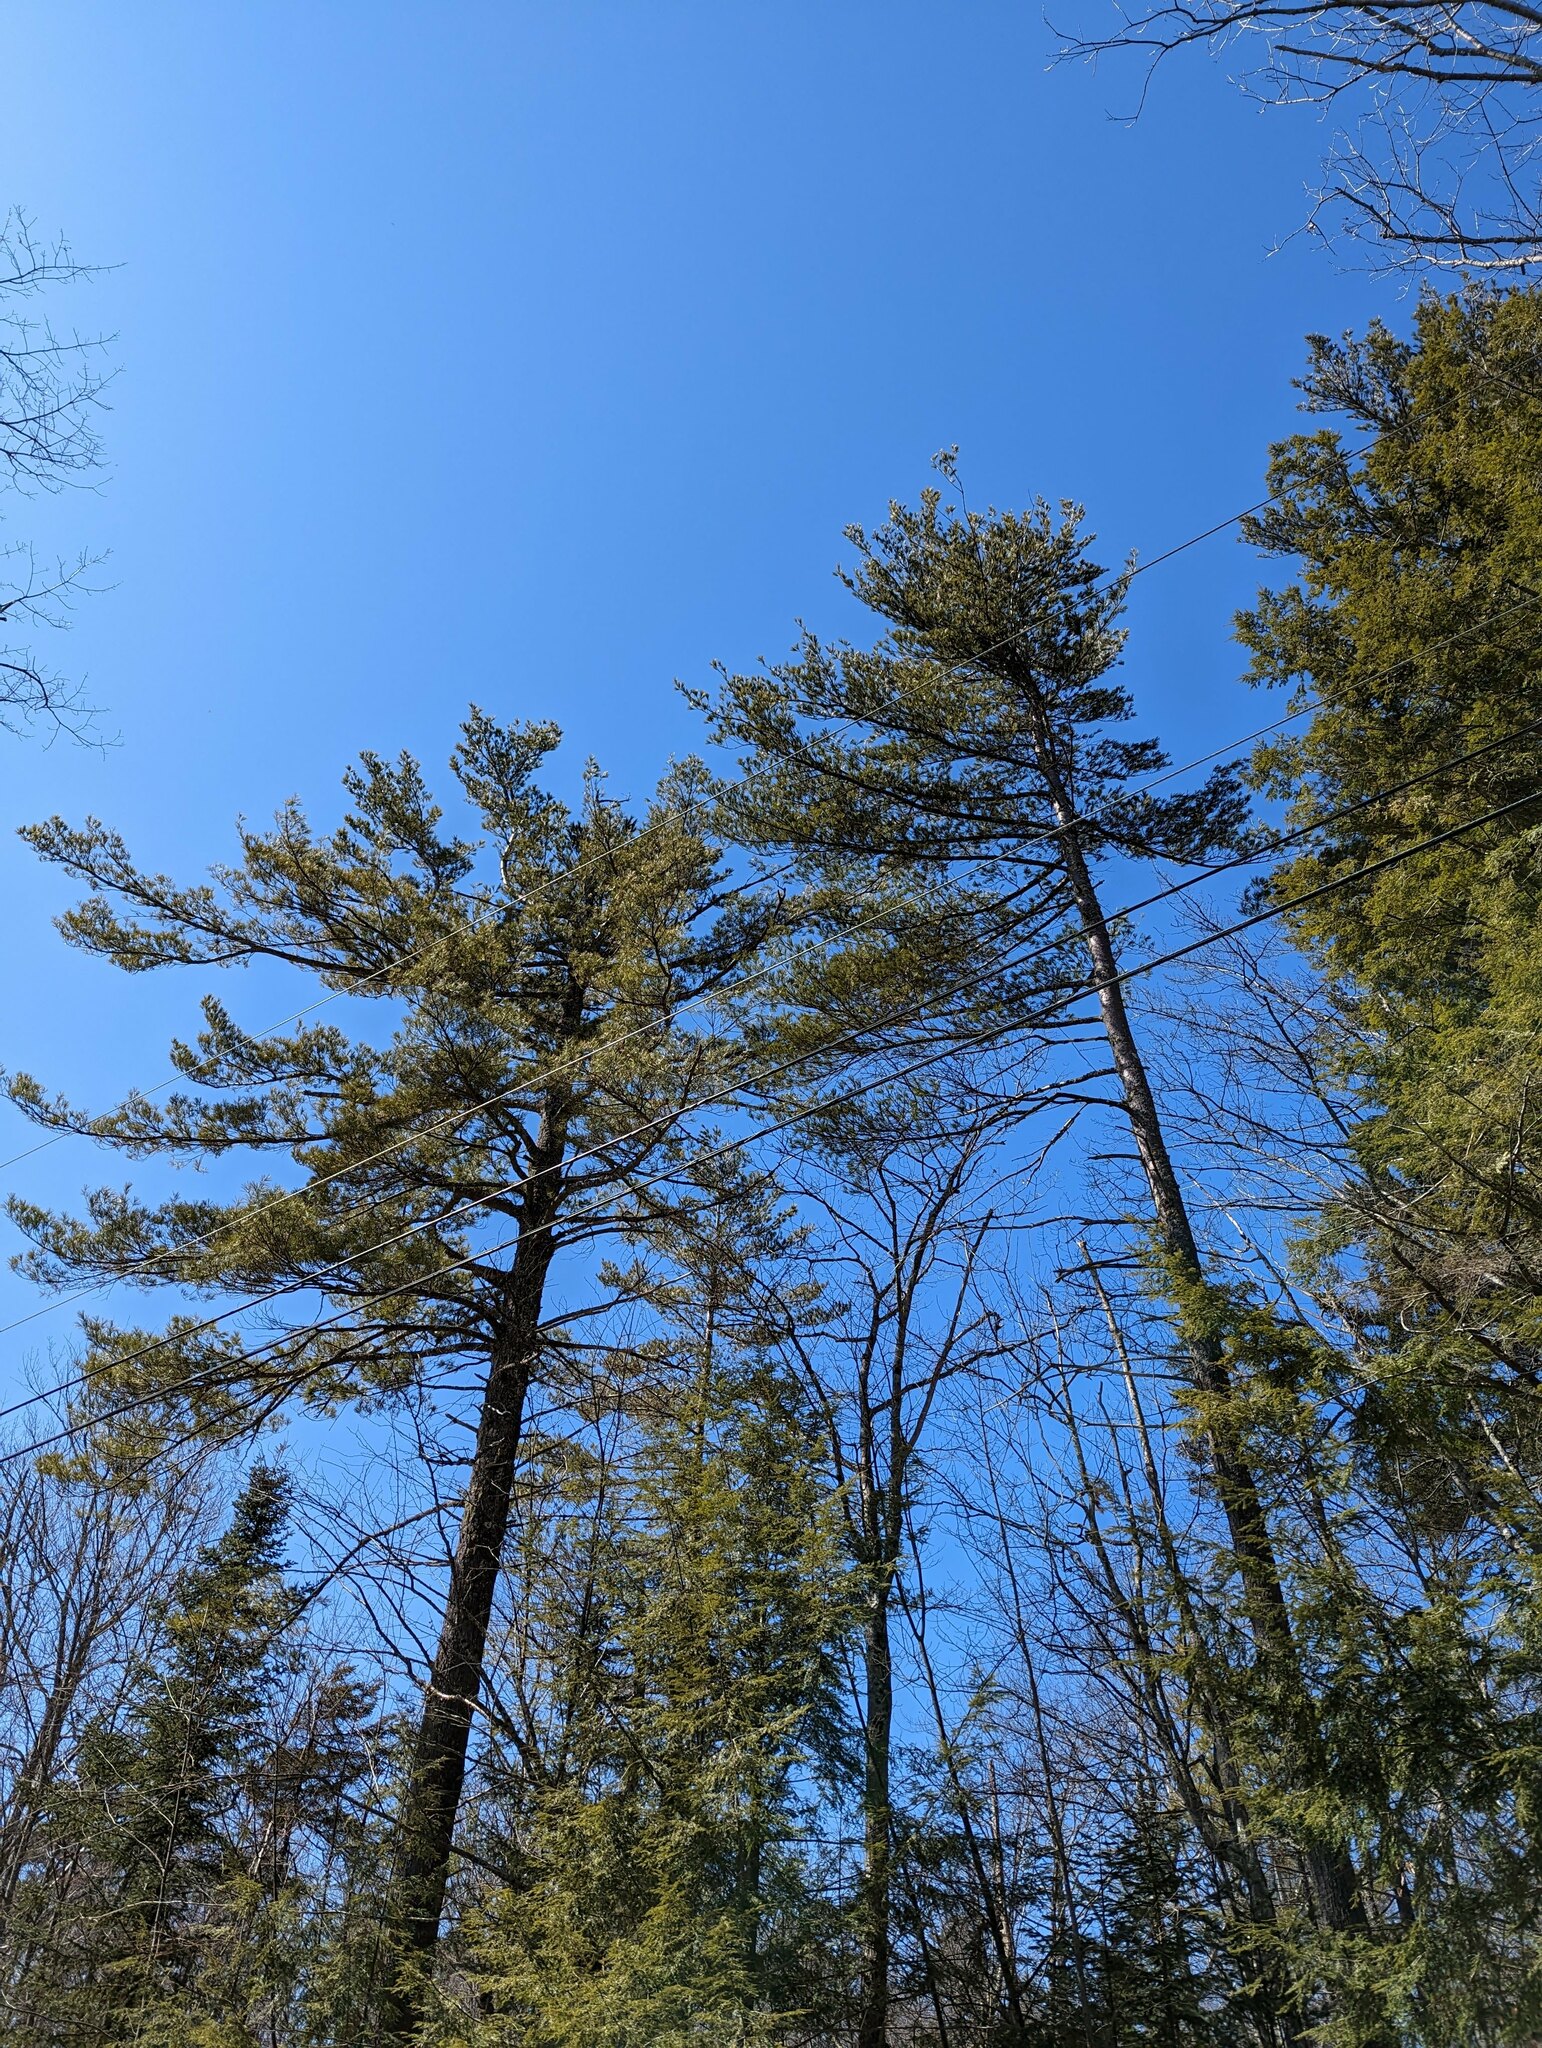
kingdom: Plantae
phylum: Tracheophyta
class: Pinopsida
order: Pinales
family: Pinaceae
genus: Pinus
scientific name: Pinus strobus
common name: Weymouth pine
